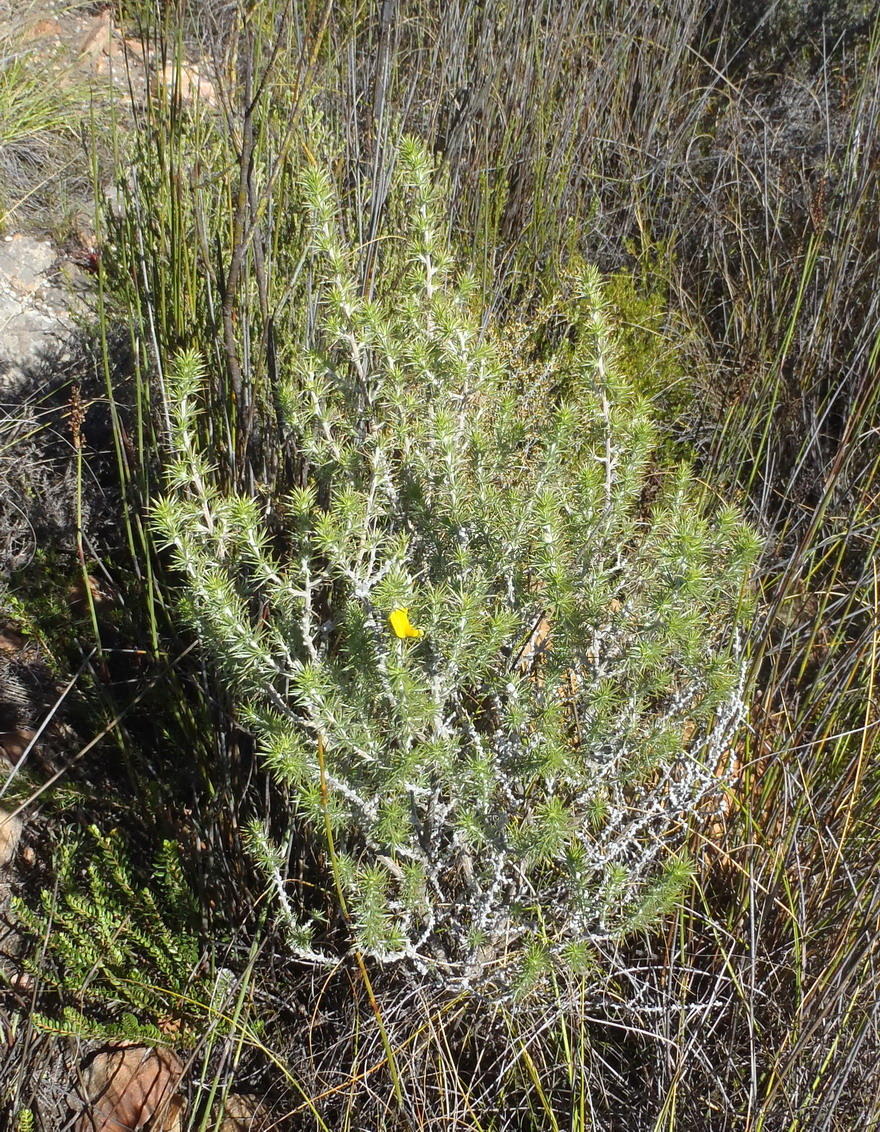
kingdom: Plantae
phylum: Tracheophyta
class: Magnoliopsida
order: Fabales
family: Fabaceae
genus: Aspalathus
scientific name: Aspalathus hirta
